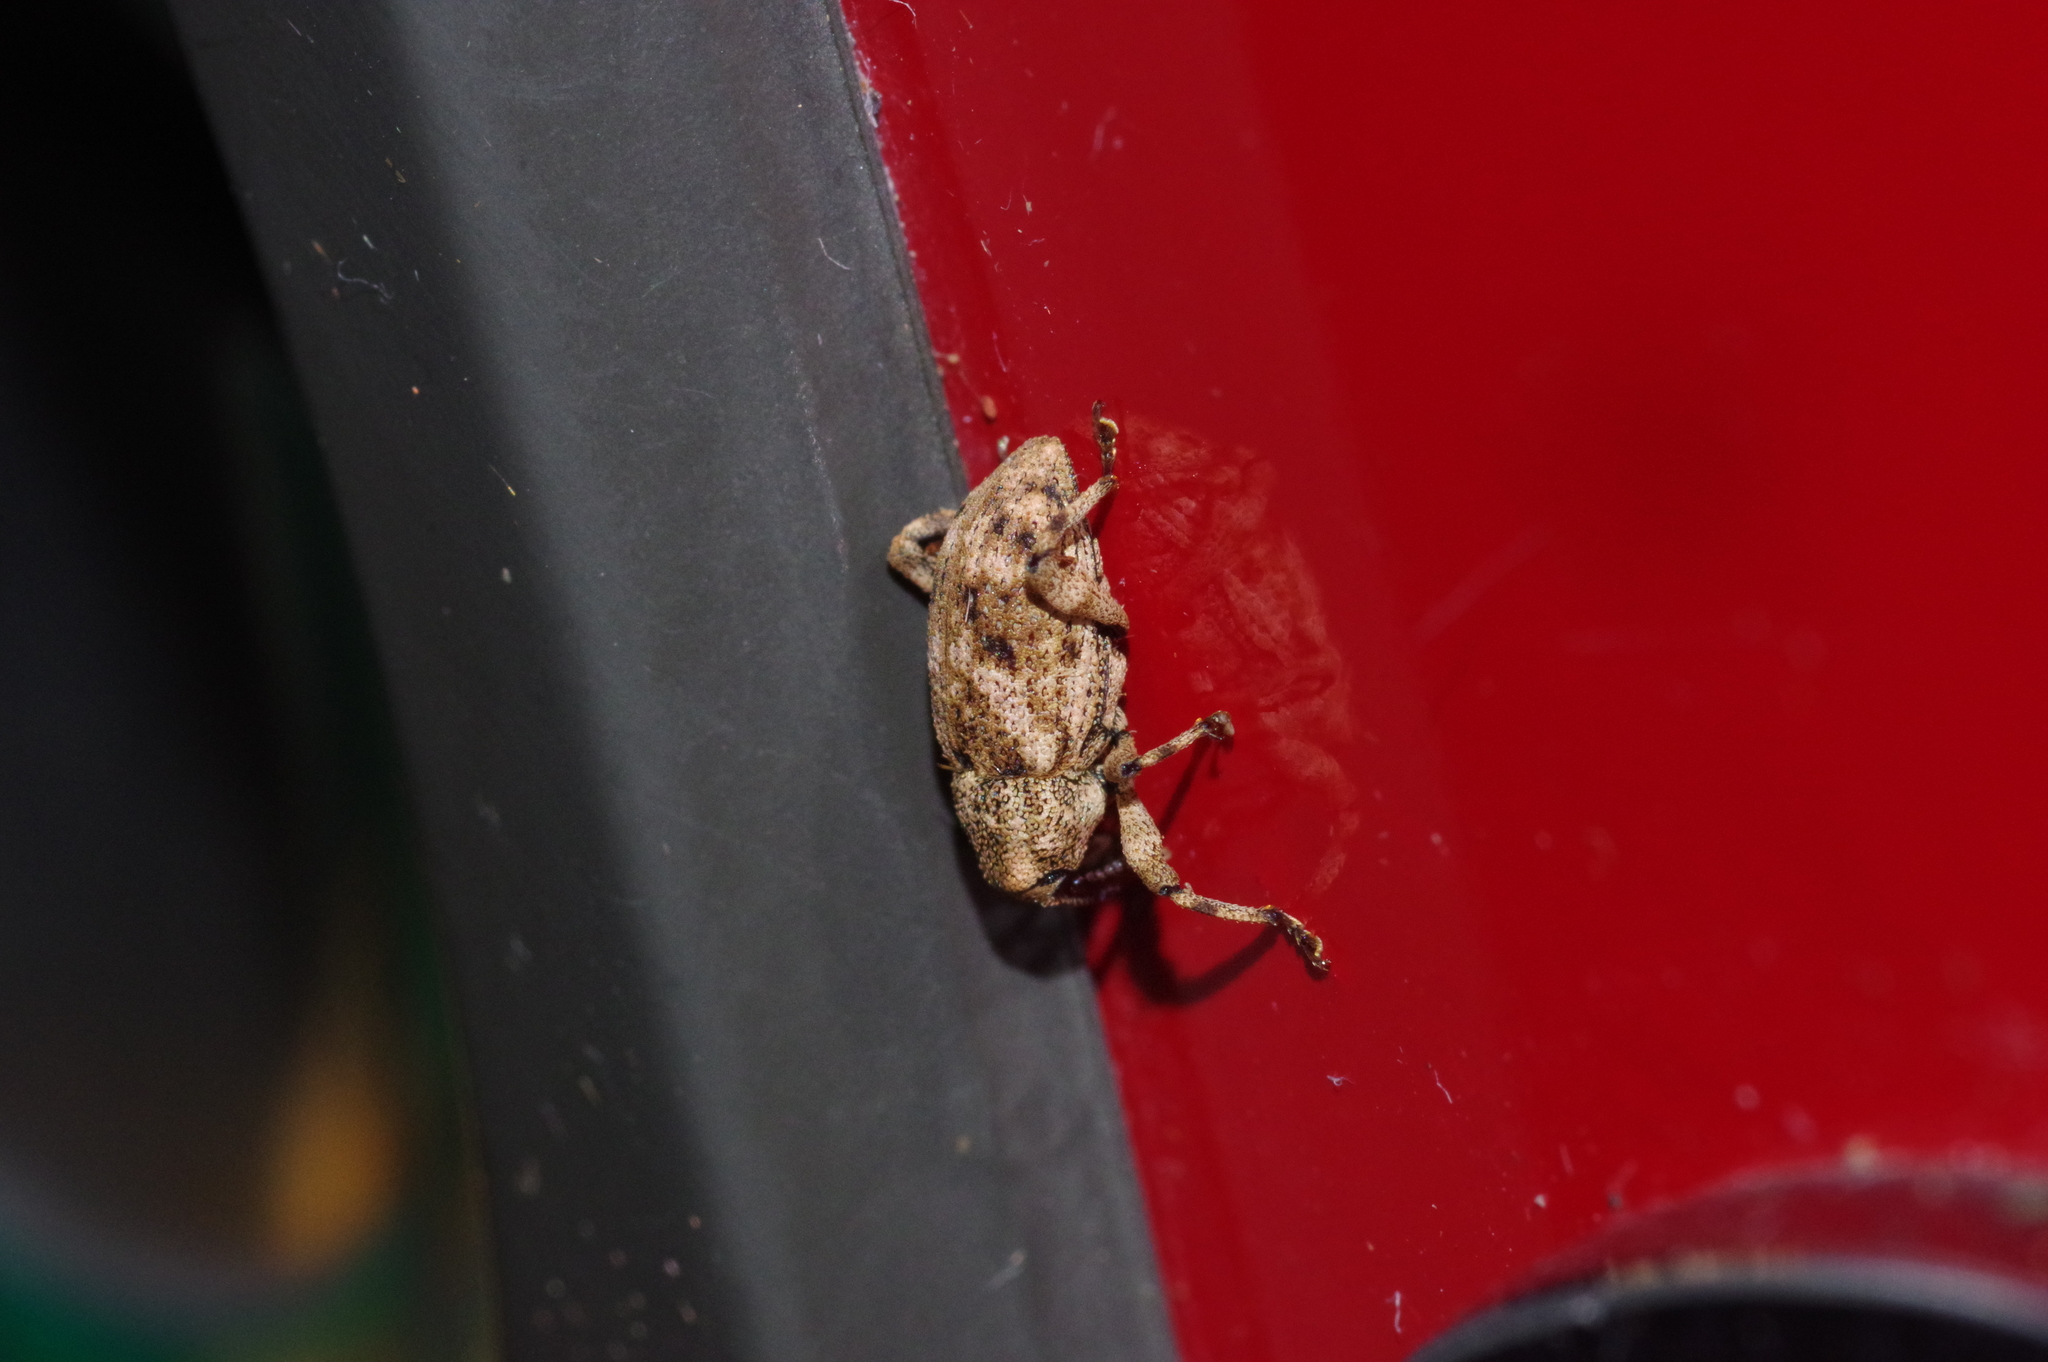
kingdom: Animalia
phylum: Arthropoda
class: Insecta
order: Coleoptera
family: Curculionidae
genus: Mechistocerus
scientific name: Mechistocerus ochraceus
